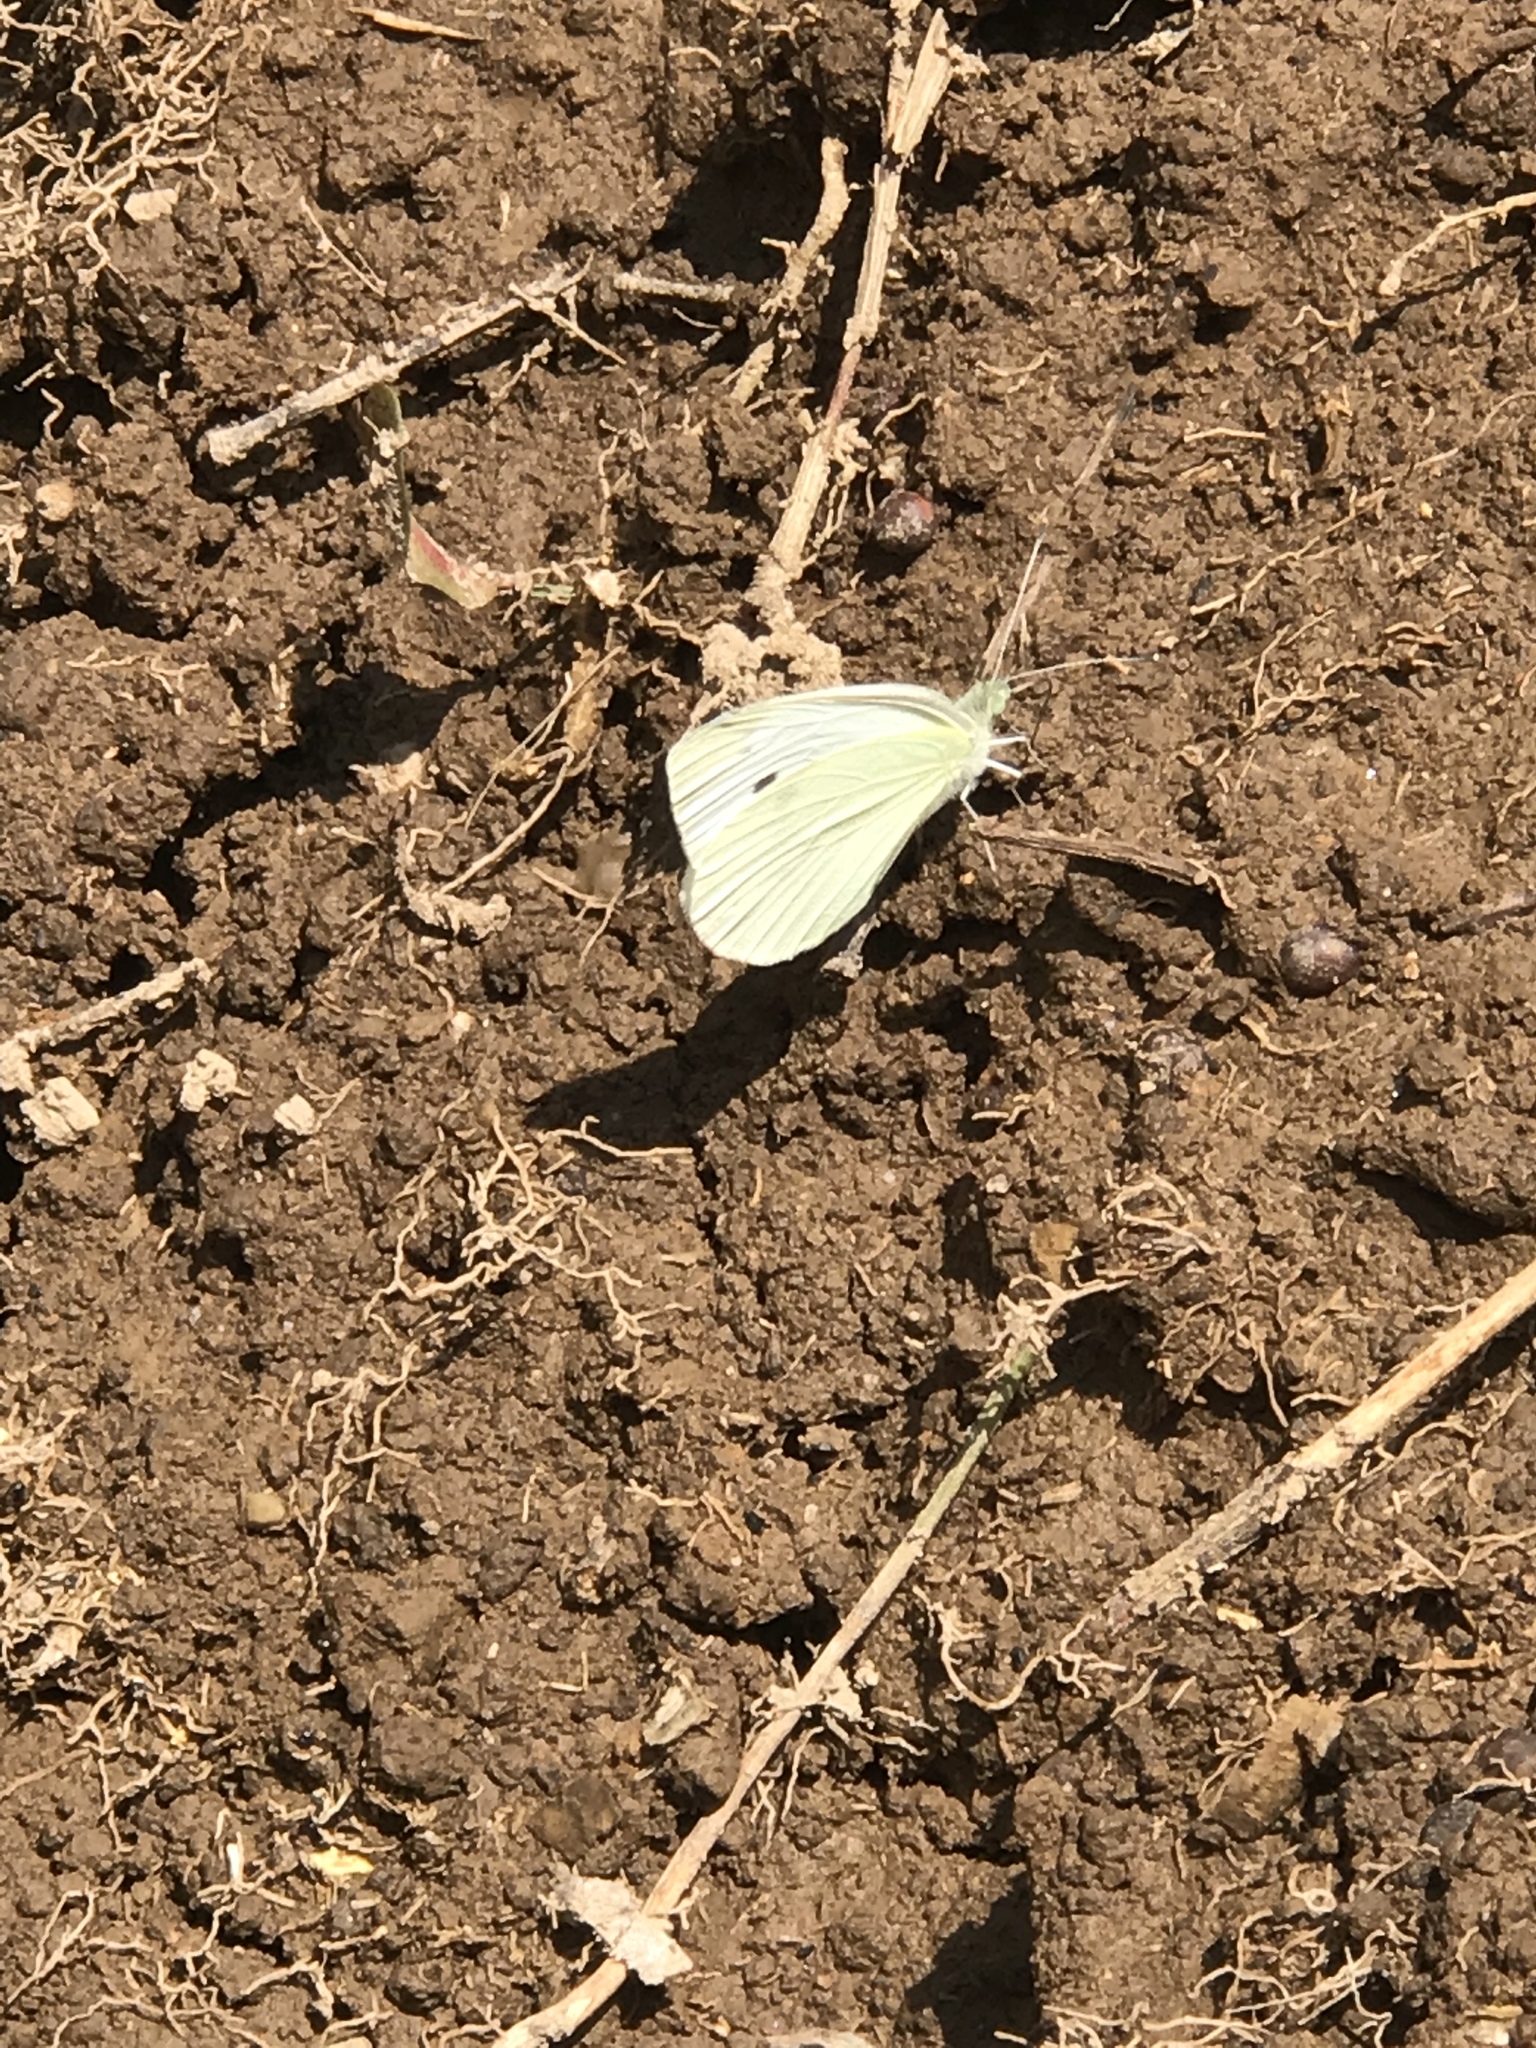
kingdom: Animalia
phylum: Arthropoda
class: Insecta
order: Lepidoptera
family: Pieridae
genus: Pieris
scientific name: Pieris rapae
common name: Small white
